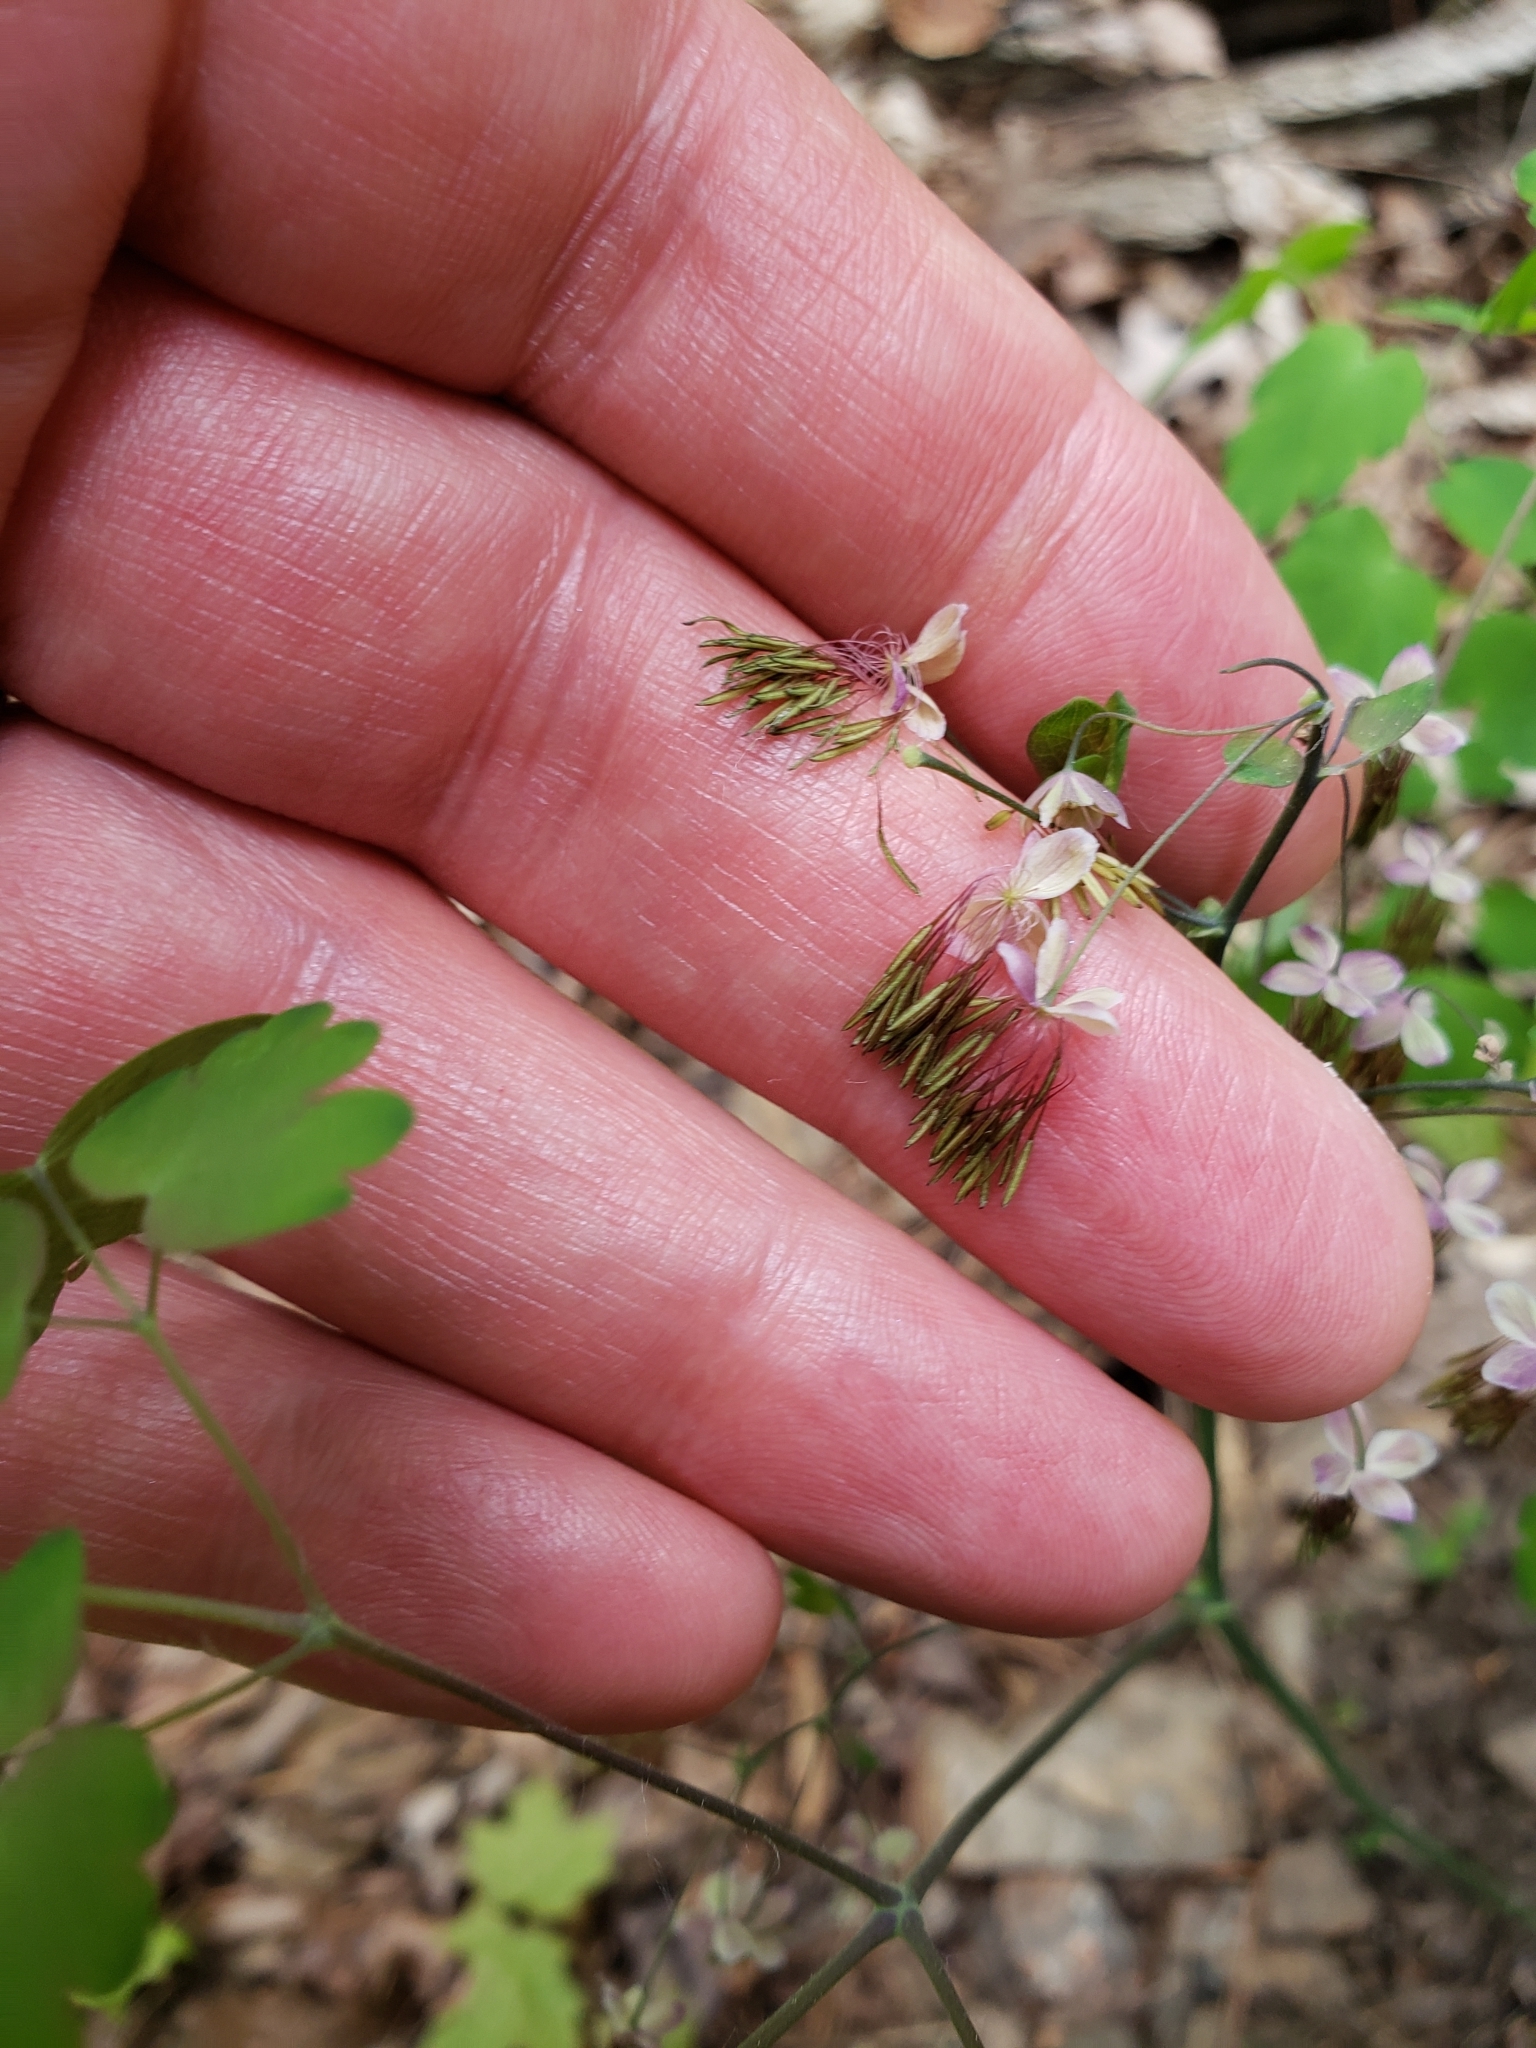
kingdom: Plantae
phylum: Tracheophyta
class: Magnoliopsida
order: Ranunculales
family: Ranunculaceae
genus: Thalictrum
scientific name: Thalictrum dioicum
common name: Early meadow-rue
